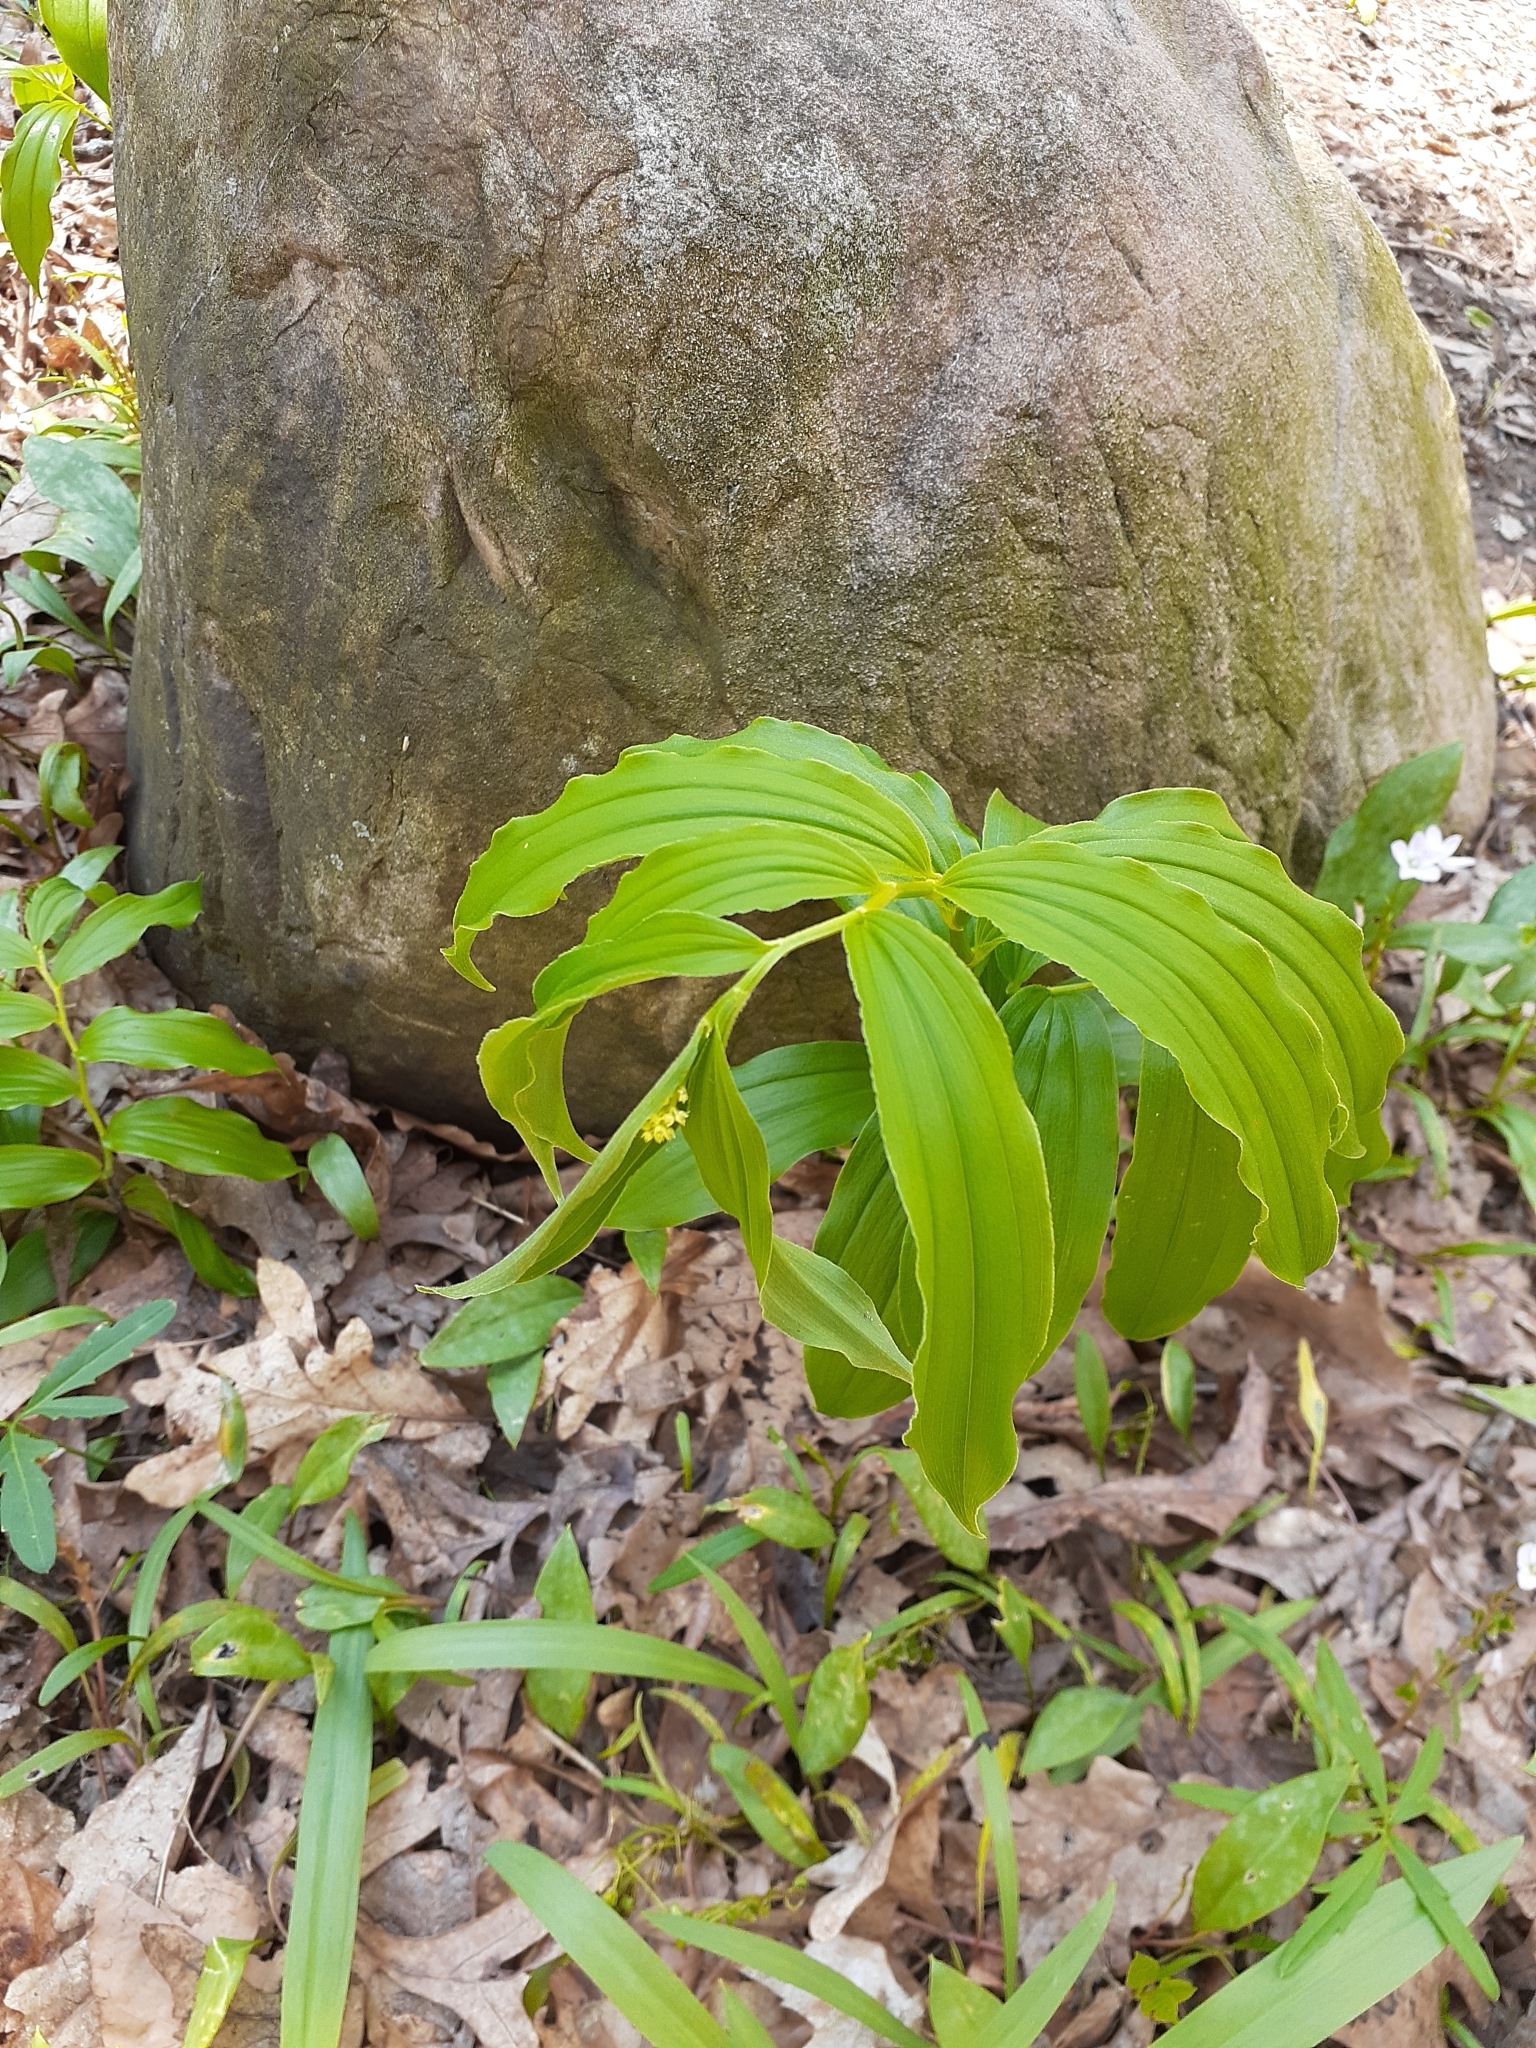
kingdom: Plantae
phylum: Tracheophyta
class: Liliopsida
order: Asparagales
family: Asparagaceae
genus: Maianthemum
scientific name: Maianthemum racemosum
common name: False spikenard
